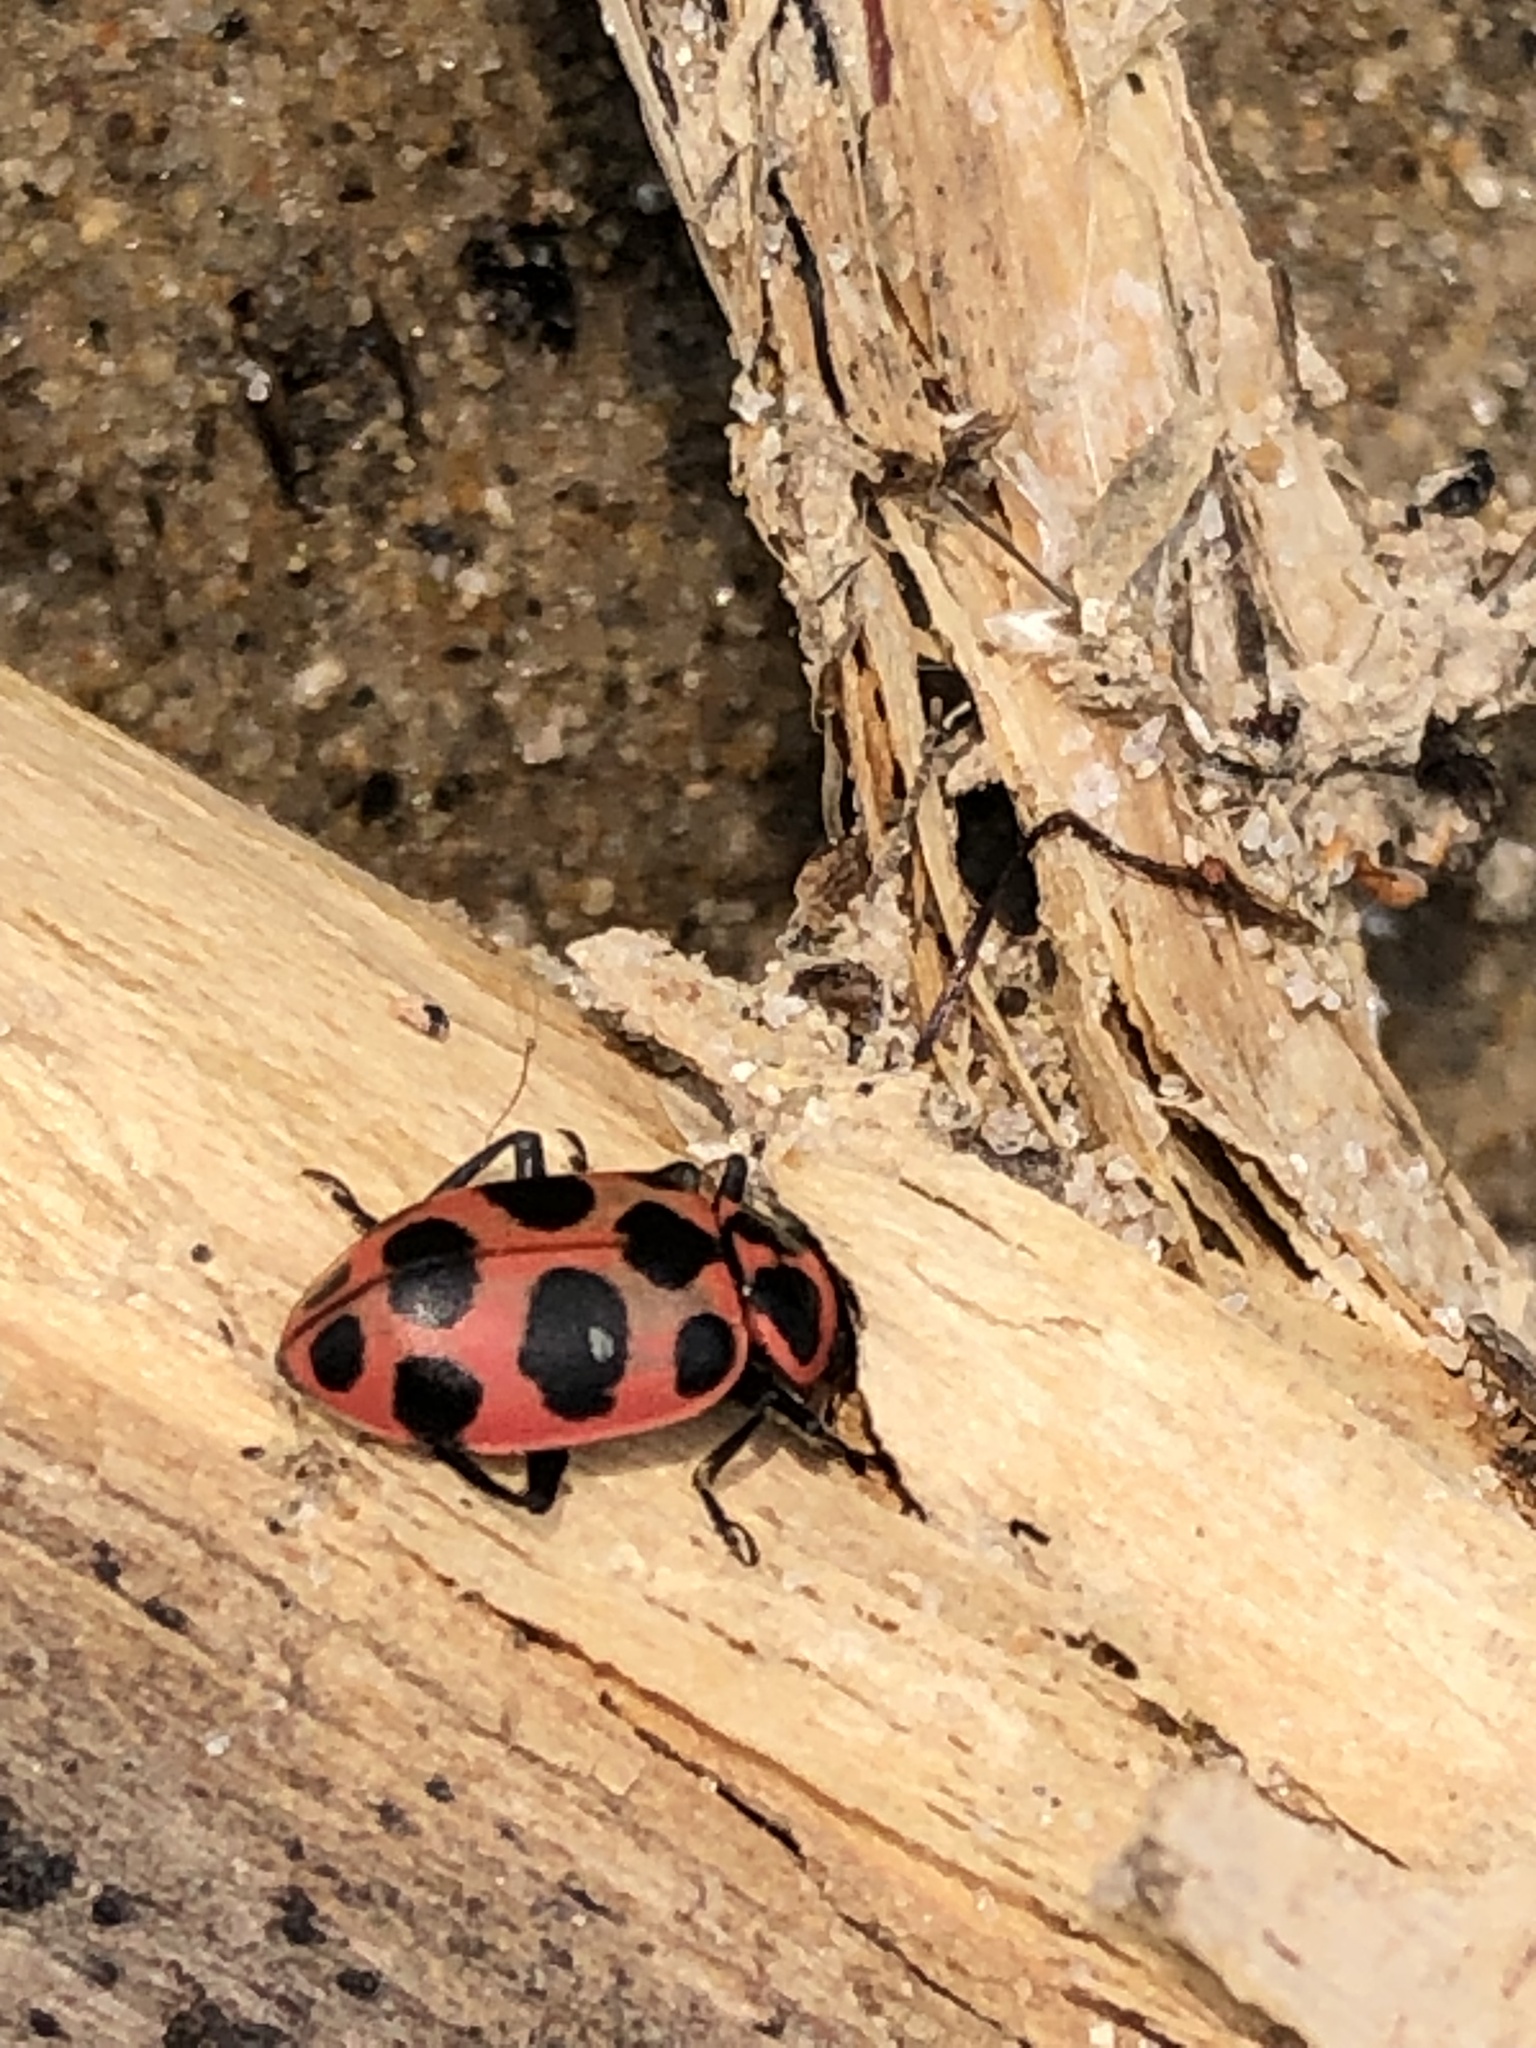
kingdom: Animalia
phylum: Arthropoda
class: Insecta
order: Coleoptera
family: Coccinellidae
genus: Coleomegilla
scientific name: Coleomegilla maculata
